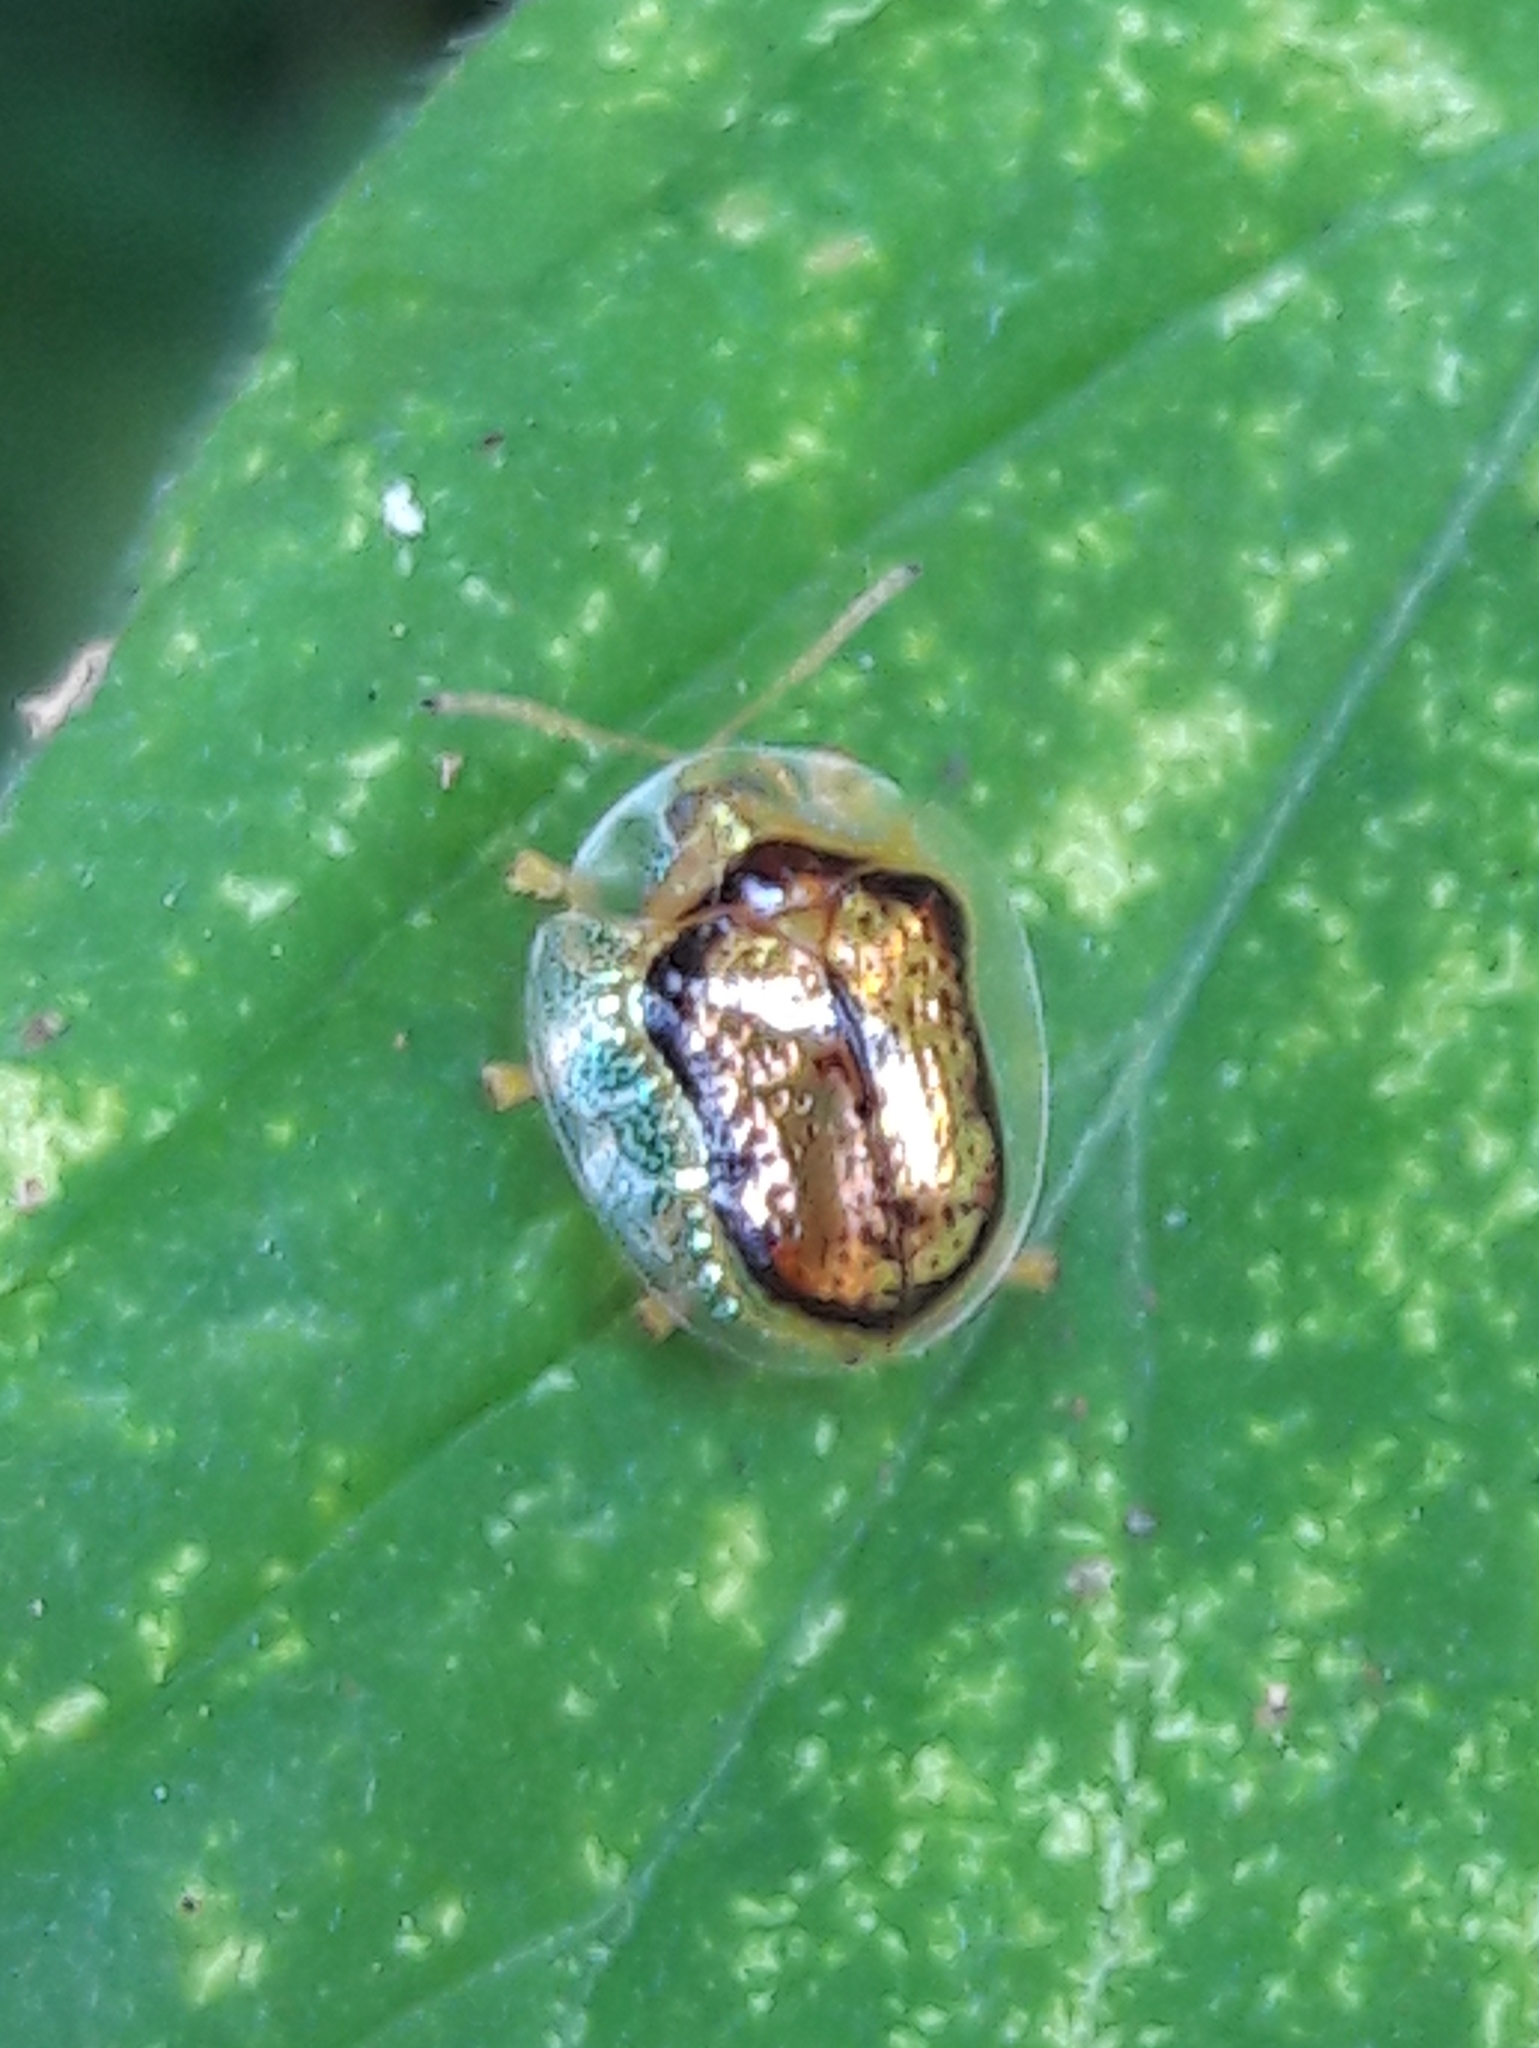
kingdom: Animalia
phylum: Arthropoda
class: Insecta
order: Coleoptera
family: Chrysomelidae
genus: Microctenochira
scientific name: Microctenochira quadrata
